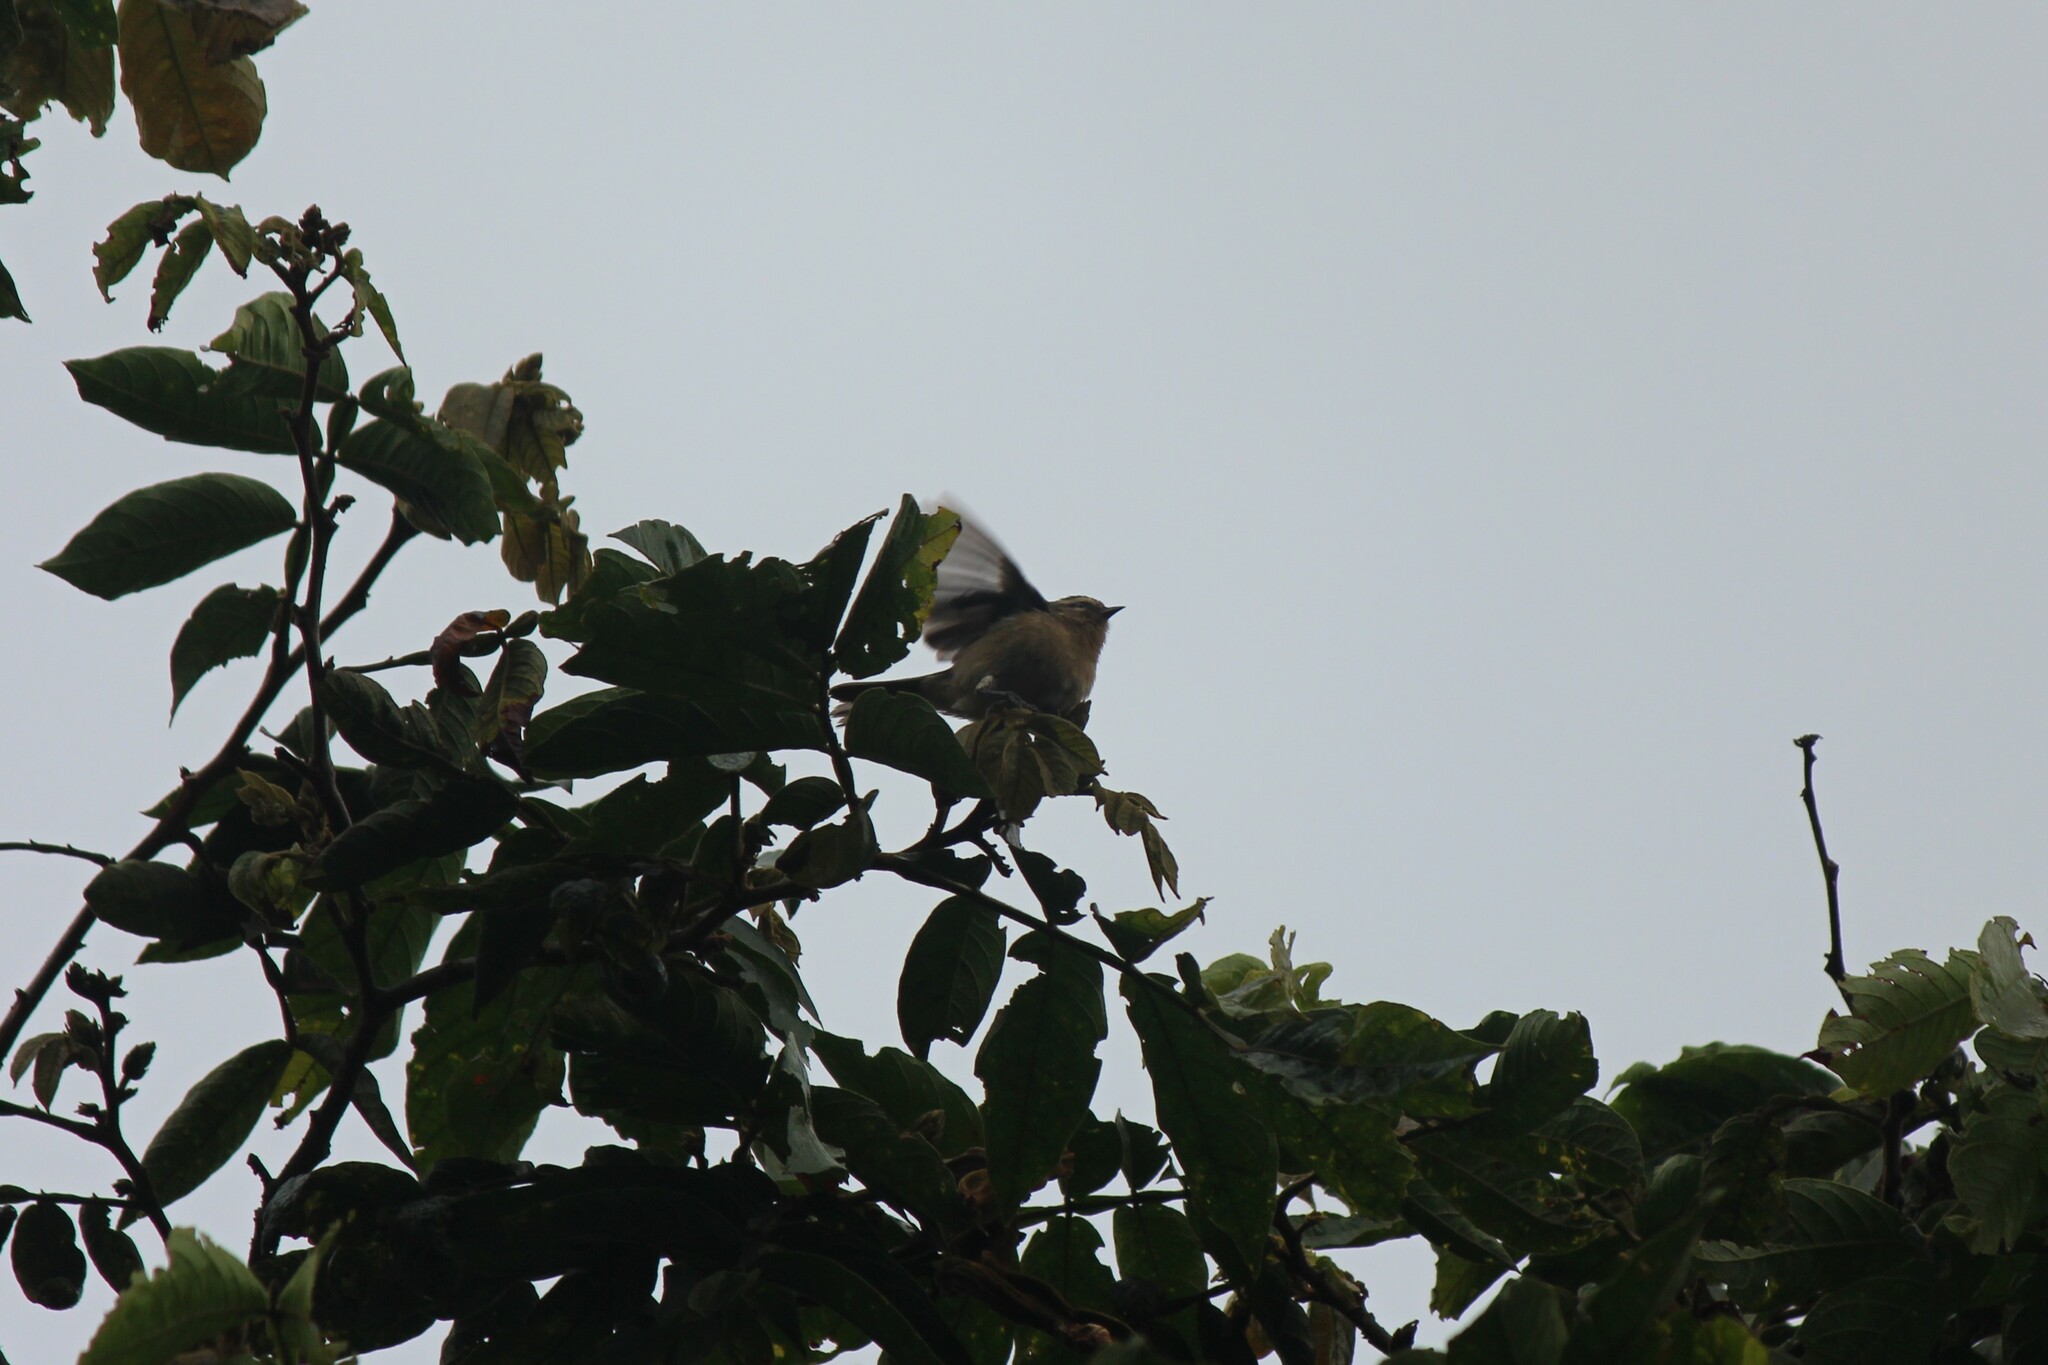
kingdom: Animalia
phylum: Chordata
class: Aves
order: Passeriformes
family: Thraupidae
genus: Conirostrum
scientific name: Conirostrum cinereum
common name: Cinereous conebill
